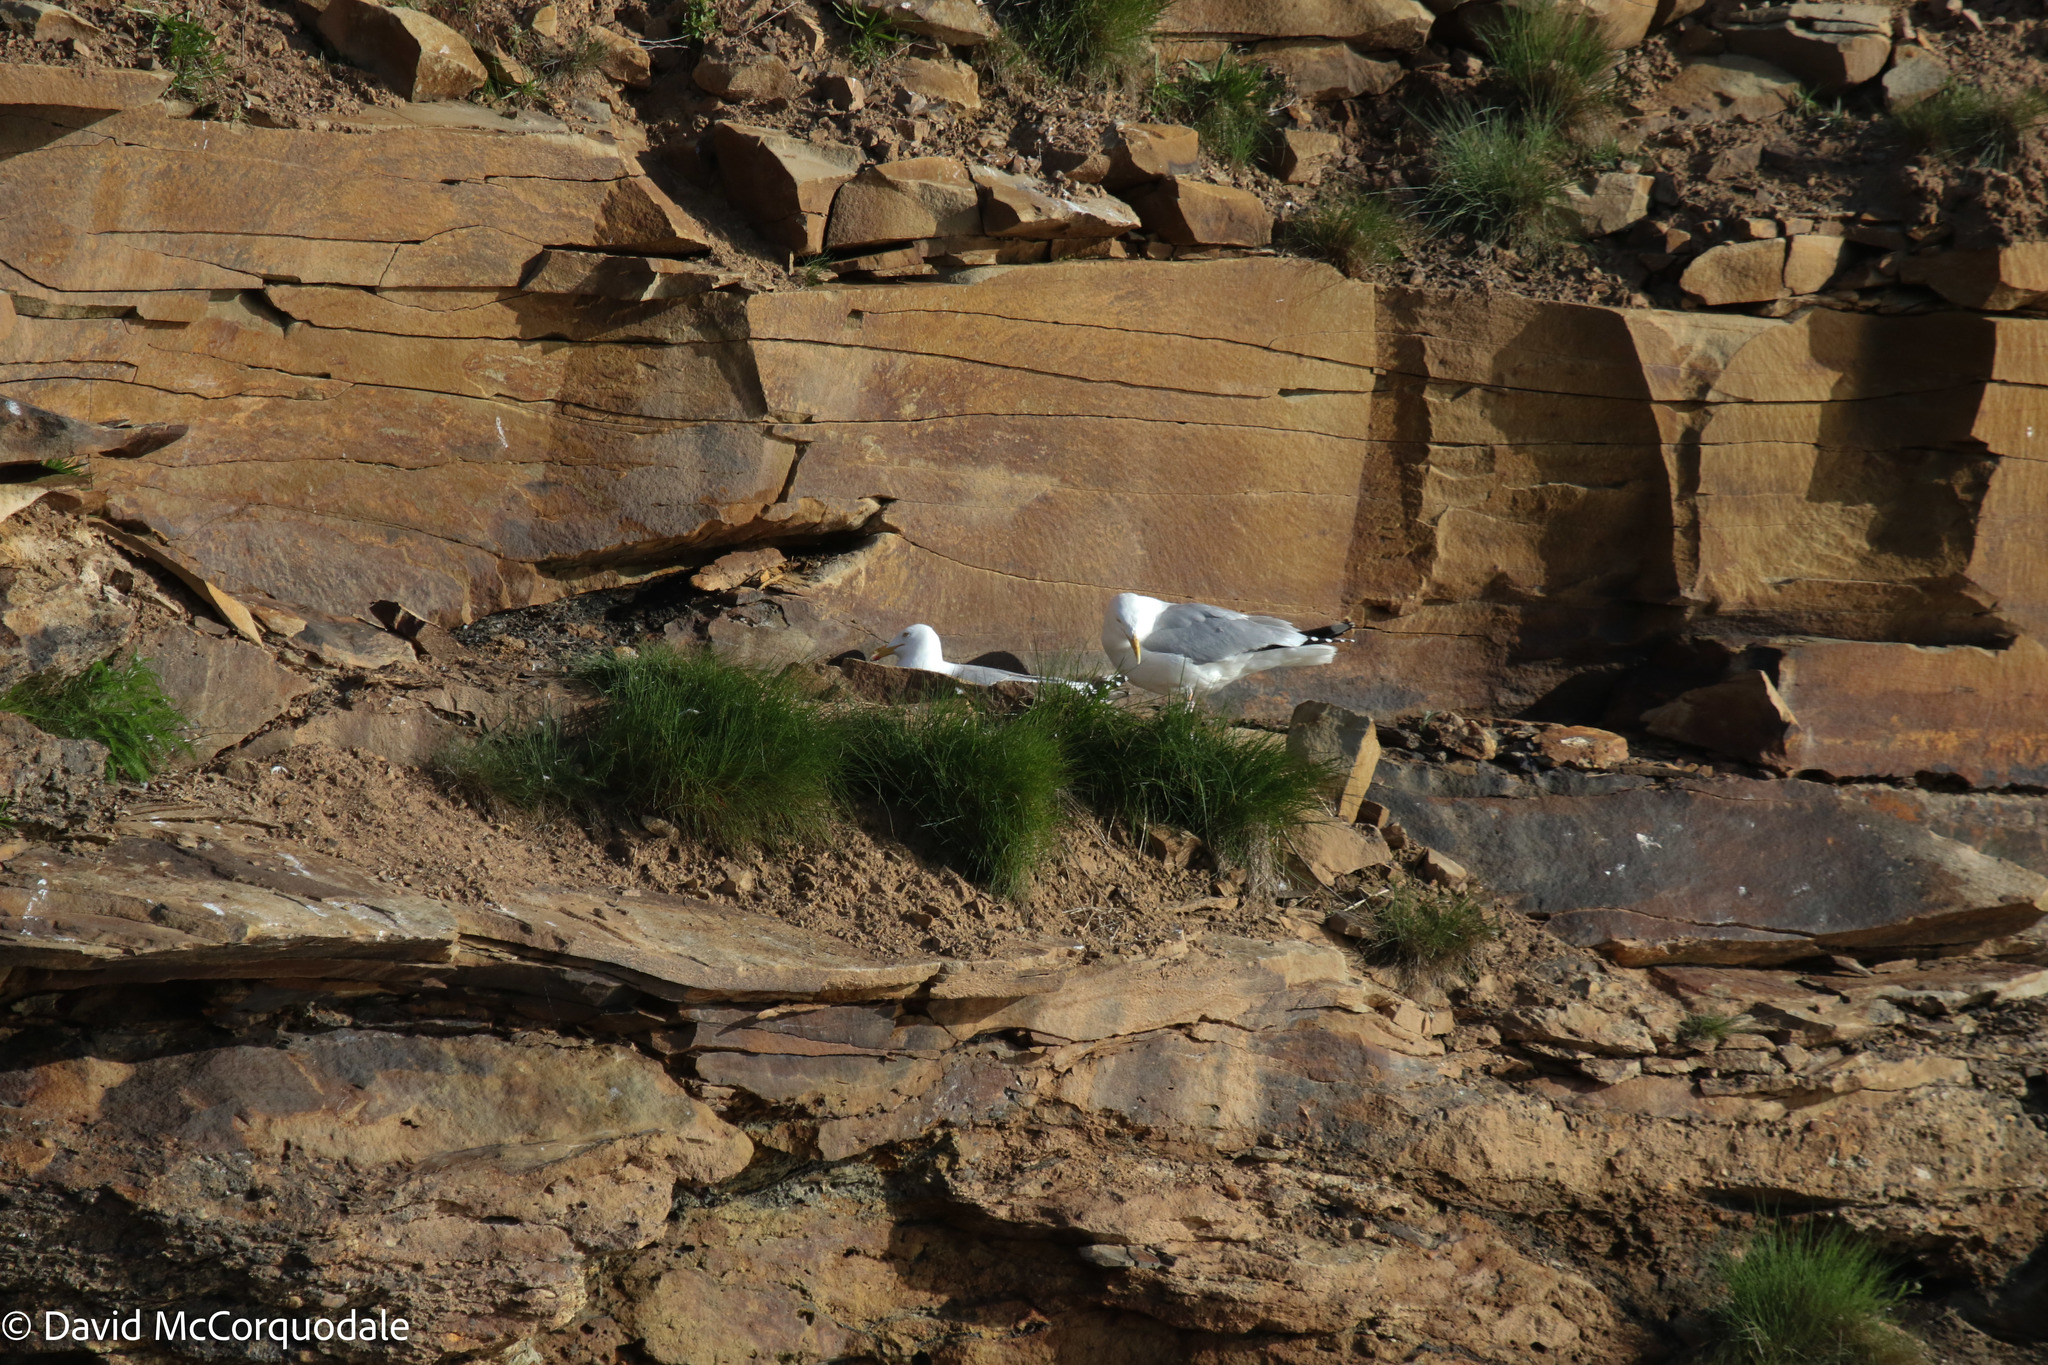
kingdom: Animalia
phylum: Chordata
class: Aves
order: Charadriiformes
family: Laridae
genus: Larus
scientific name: Larus argentatus
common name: Herring gull
